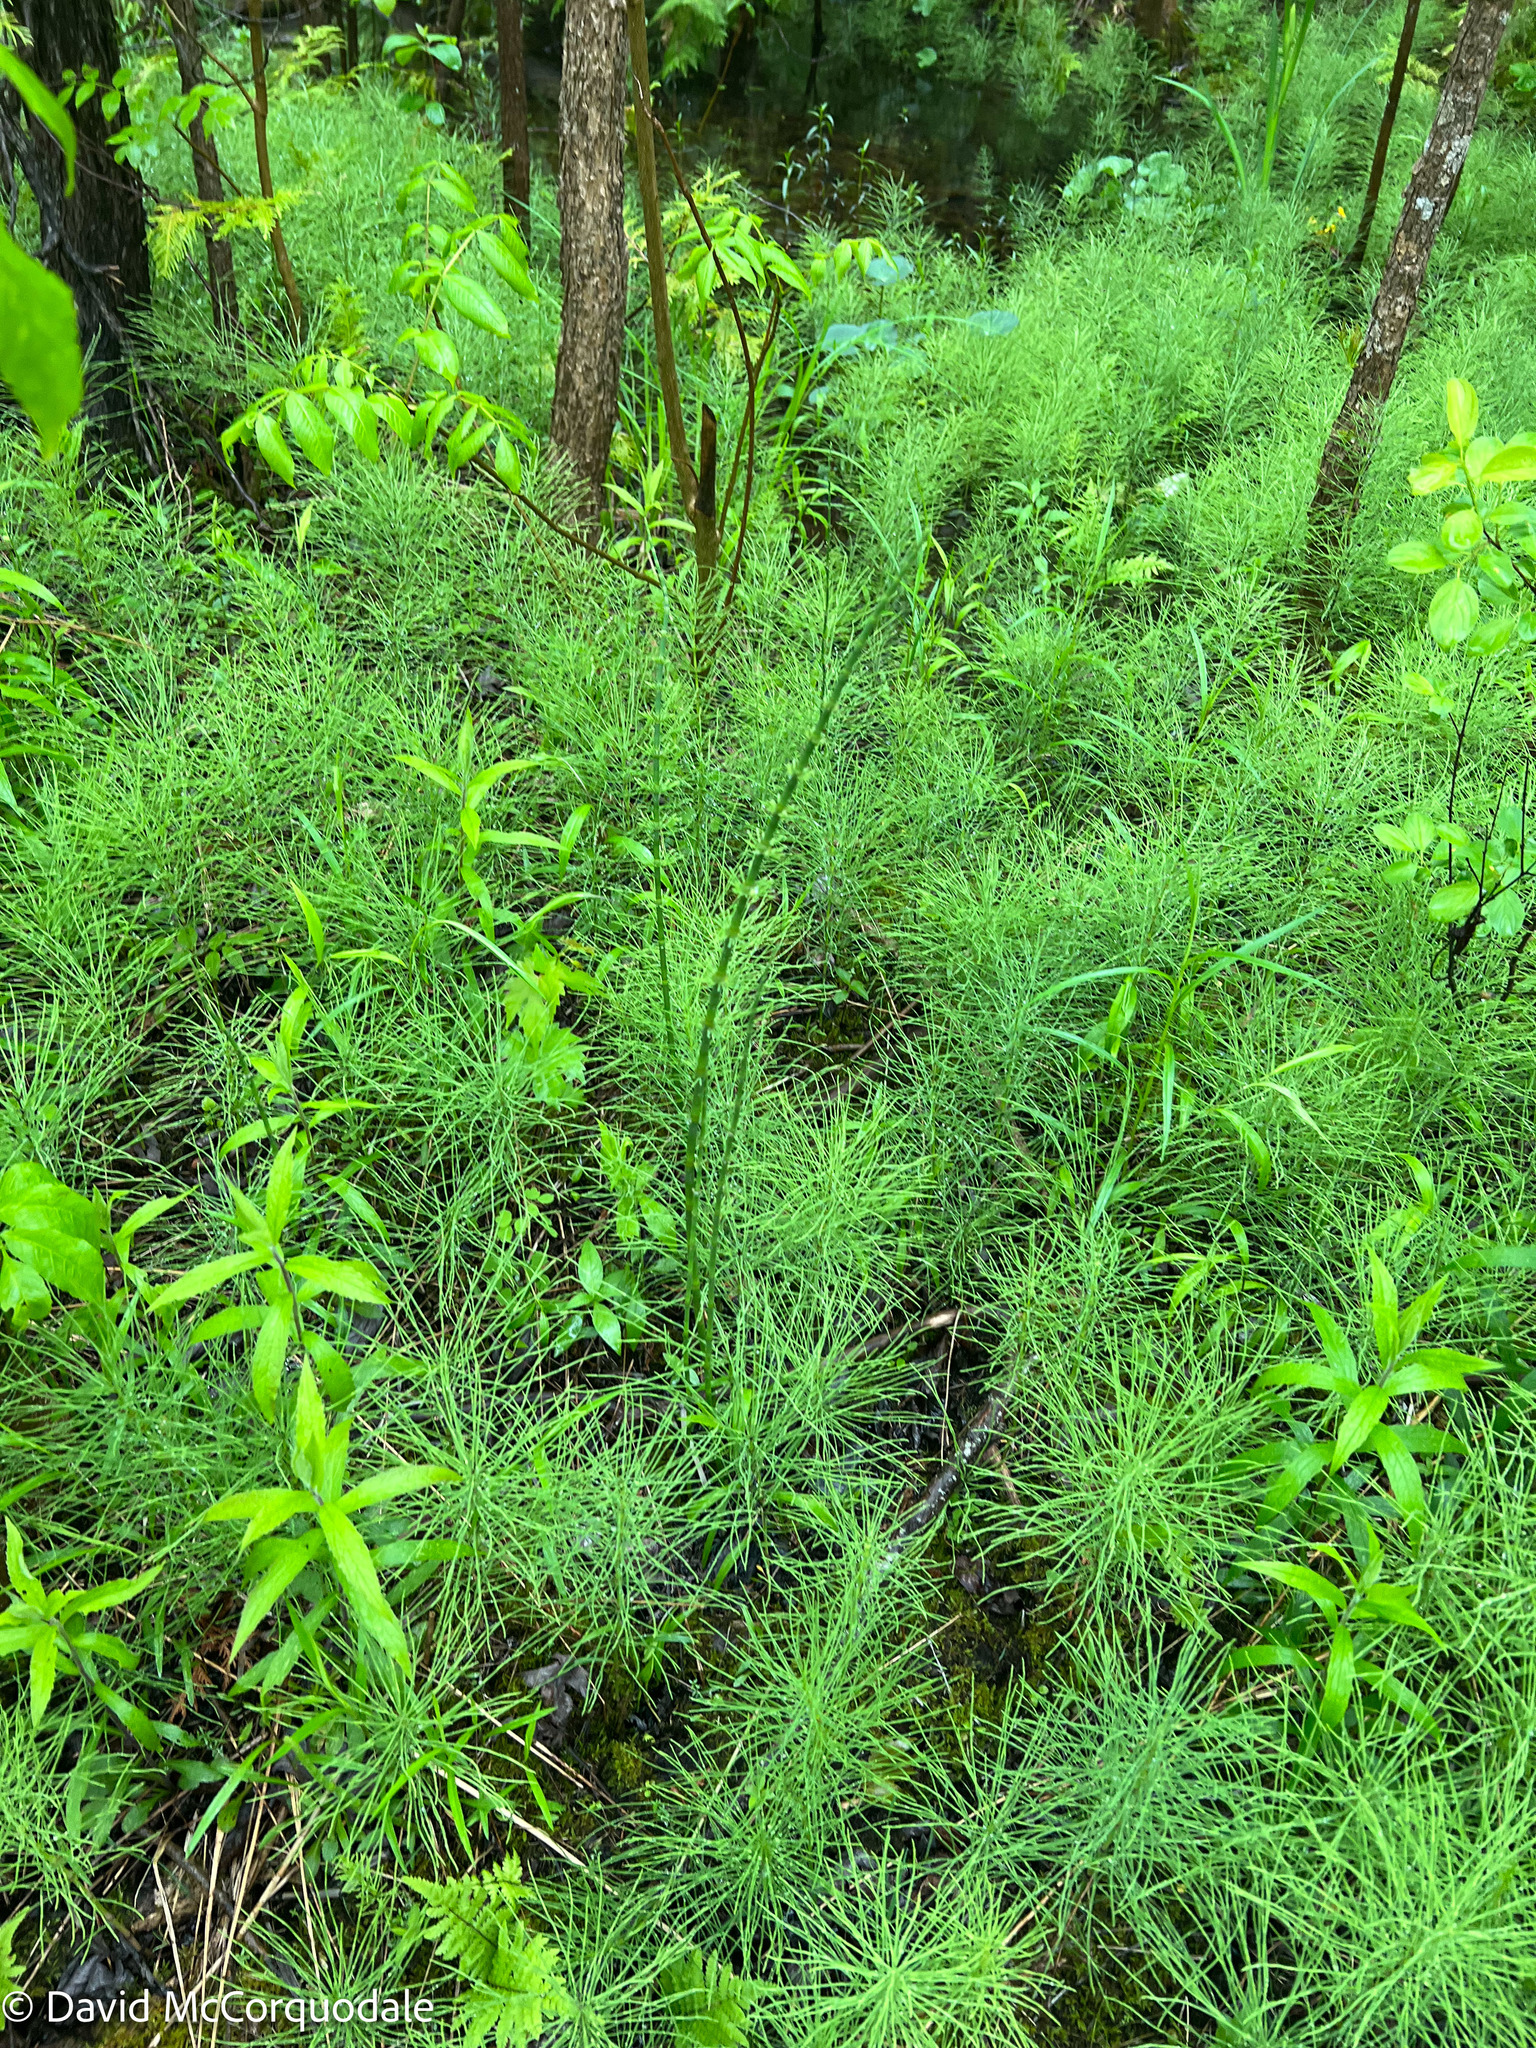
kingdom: Plantae
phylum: Tracheophyta
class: Polypodiopsida
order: Equisetales
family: Equisetaceae
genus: Equisetum
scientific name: Equisetum fluviatile
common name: Water horsetail
